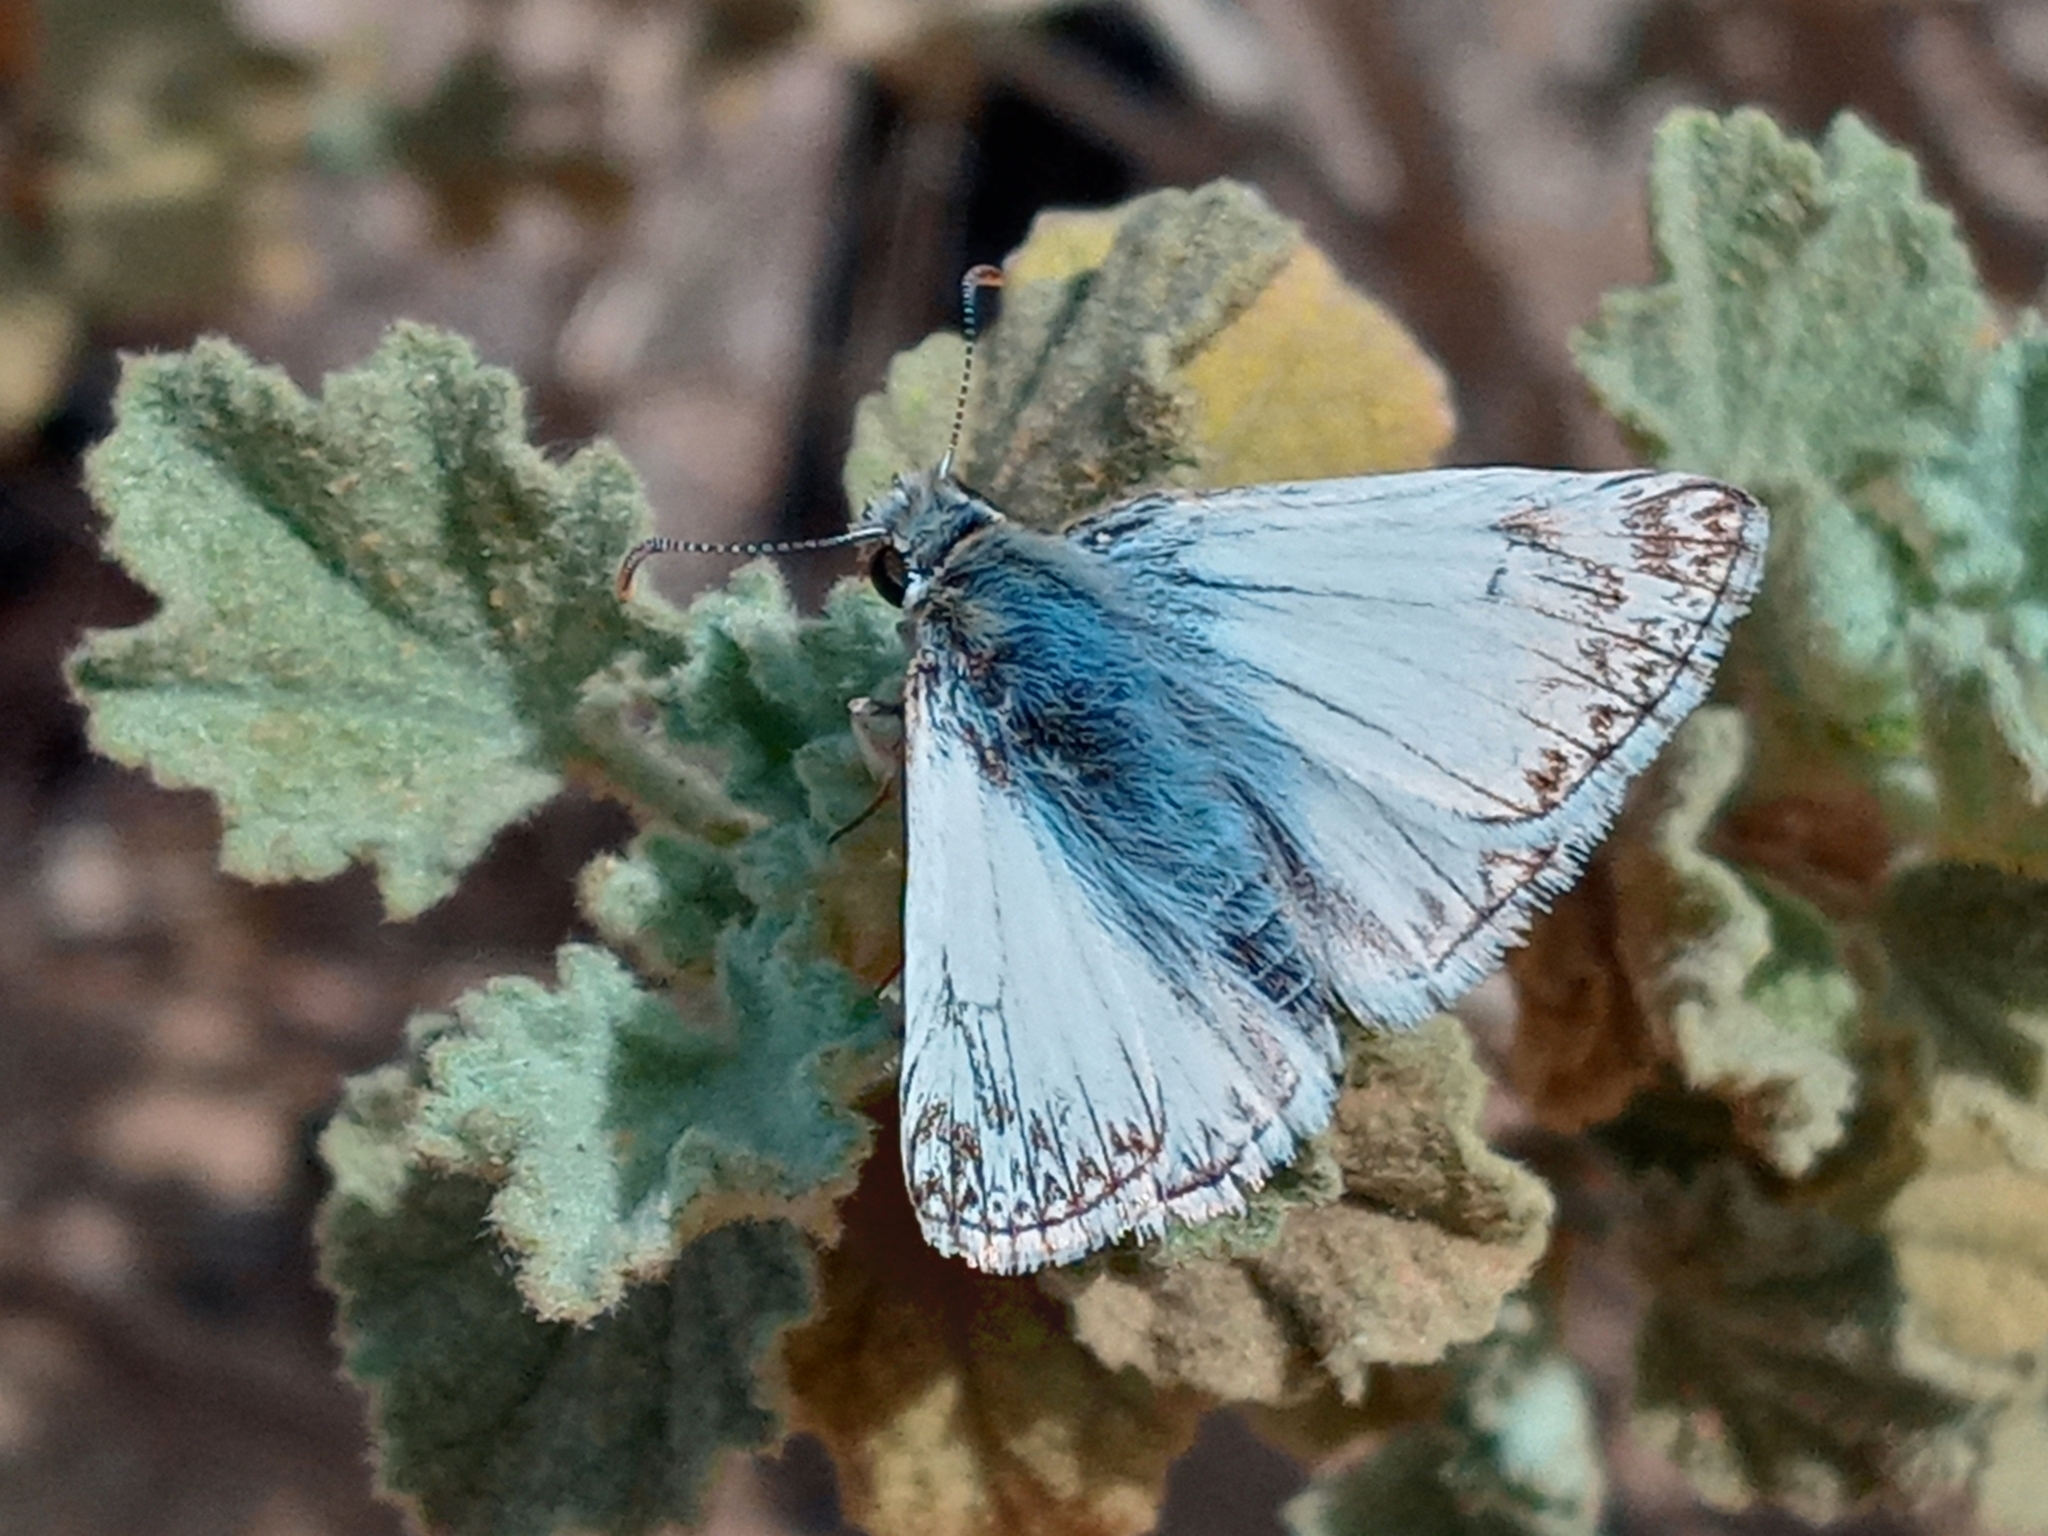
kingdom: Animalia
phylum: Arthropoda
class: Insecta
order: Lepidoptera
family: Hesperiidae
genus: Heliopetes
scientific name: Heliopetes ericetorum
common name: Northern white-skipper
